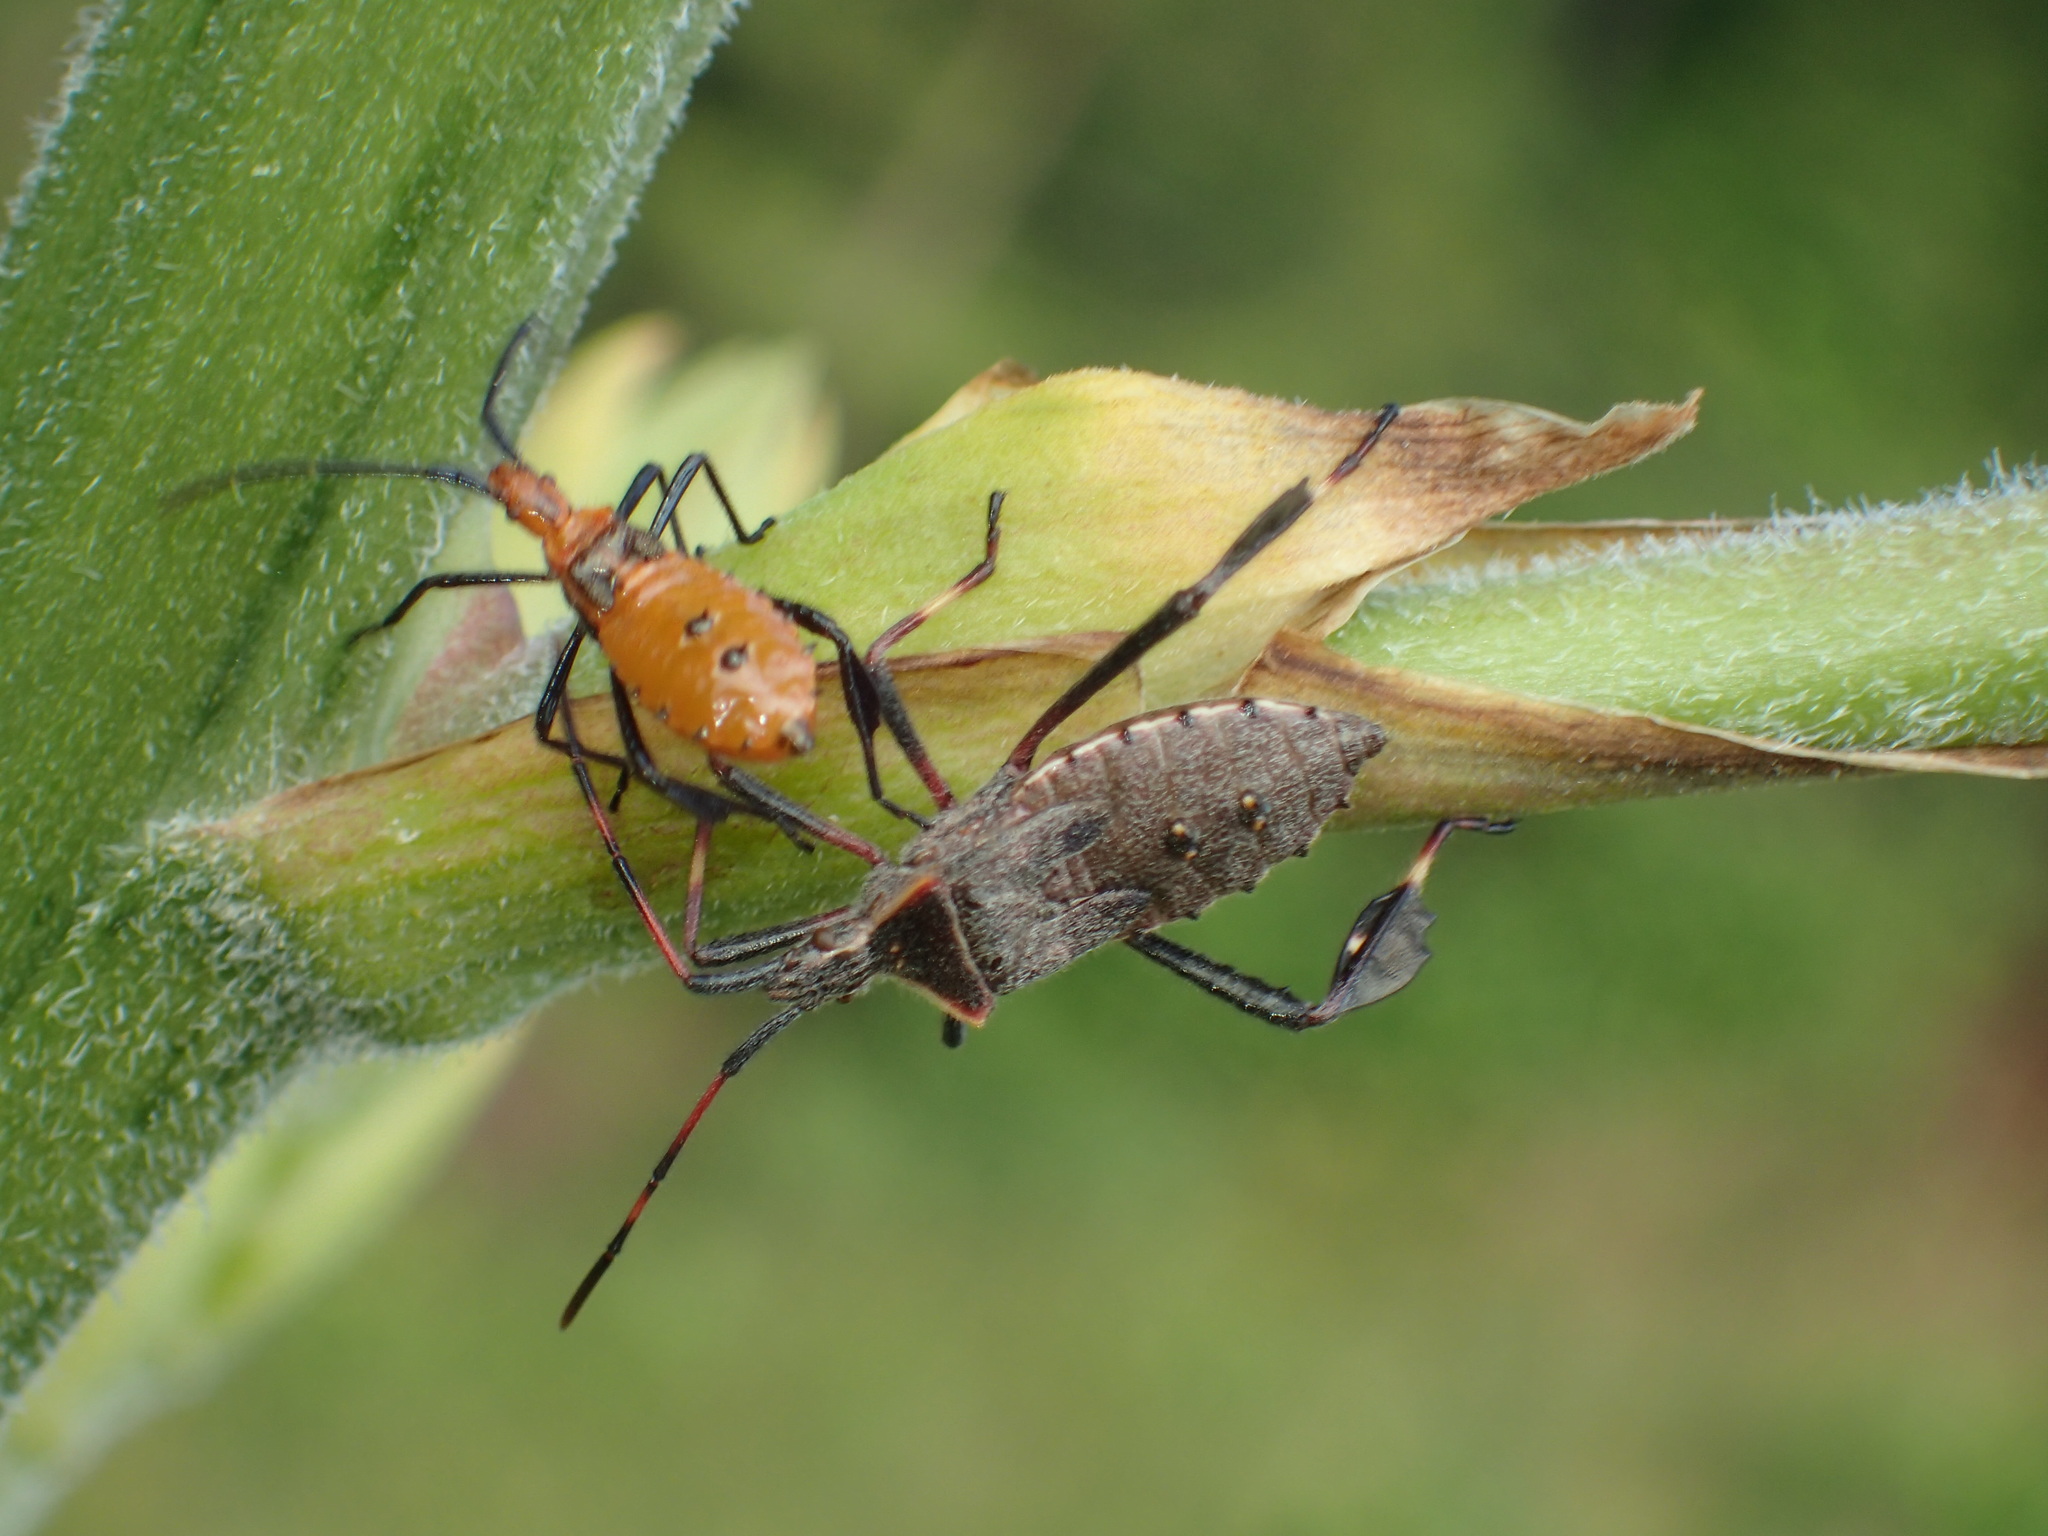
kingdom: Animalia
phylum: Arthropoda
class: Insecta
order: Hemiptera
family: Coreidae
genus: Leptoglossus
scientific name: Leptoglossus phyllopus
